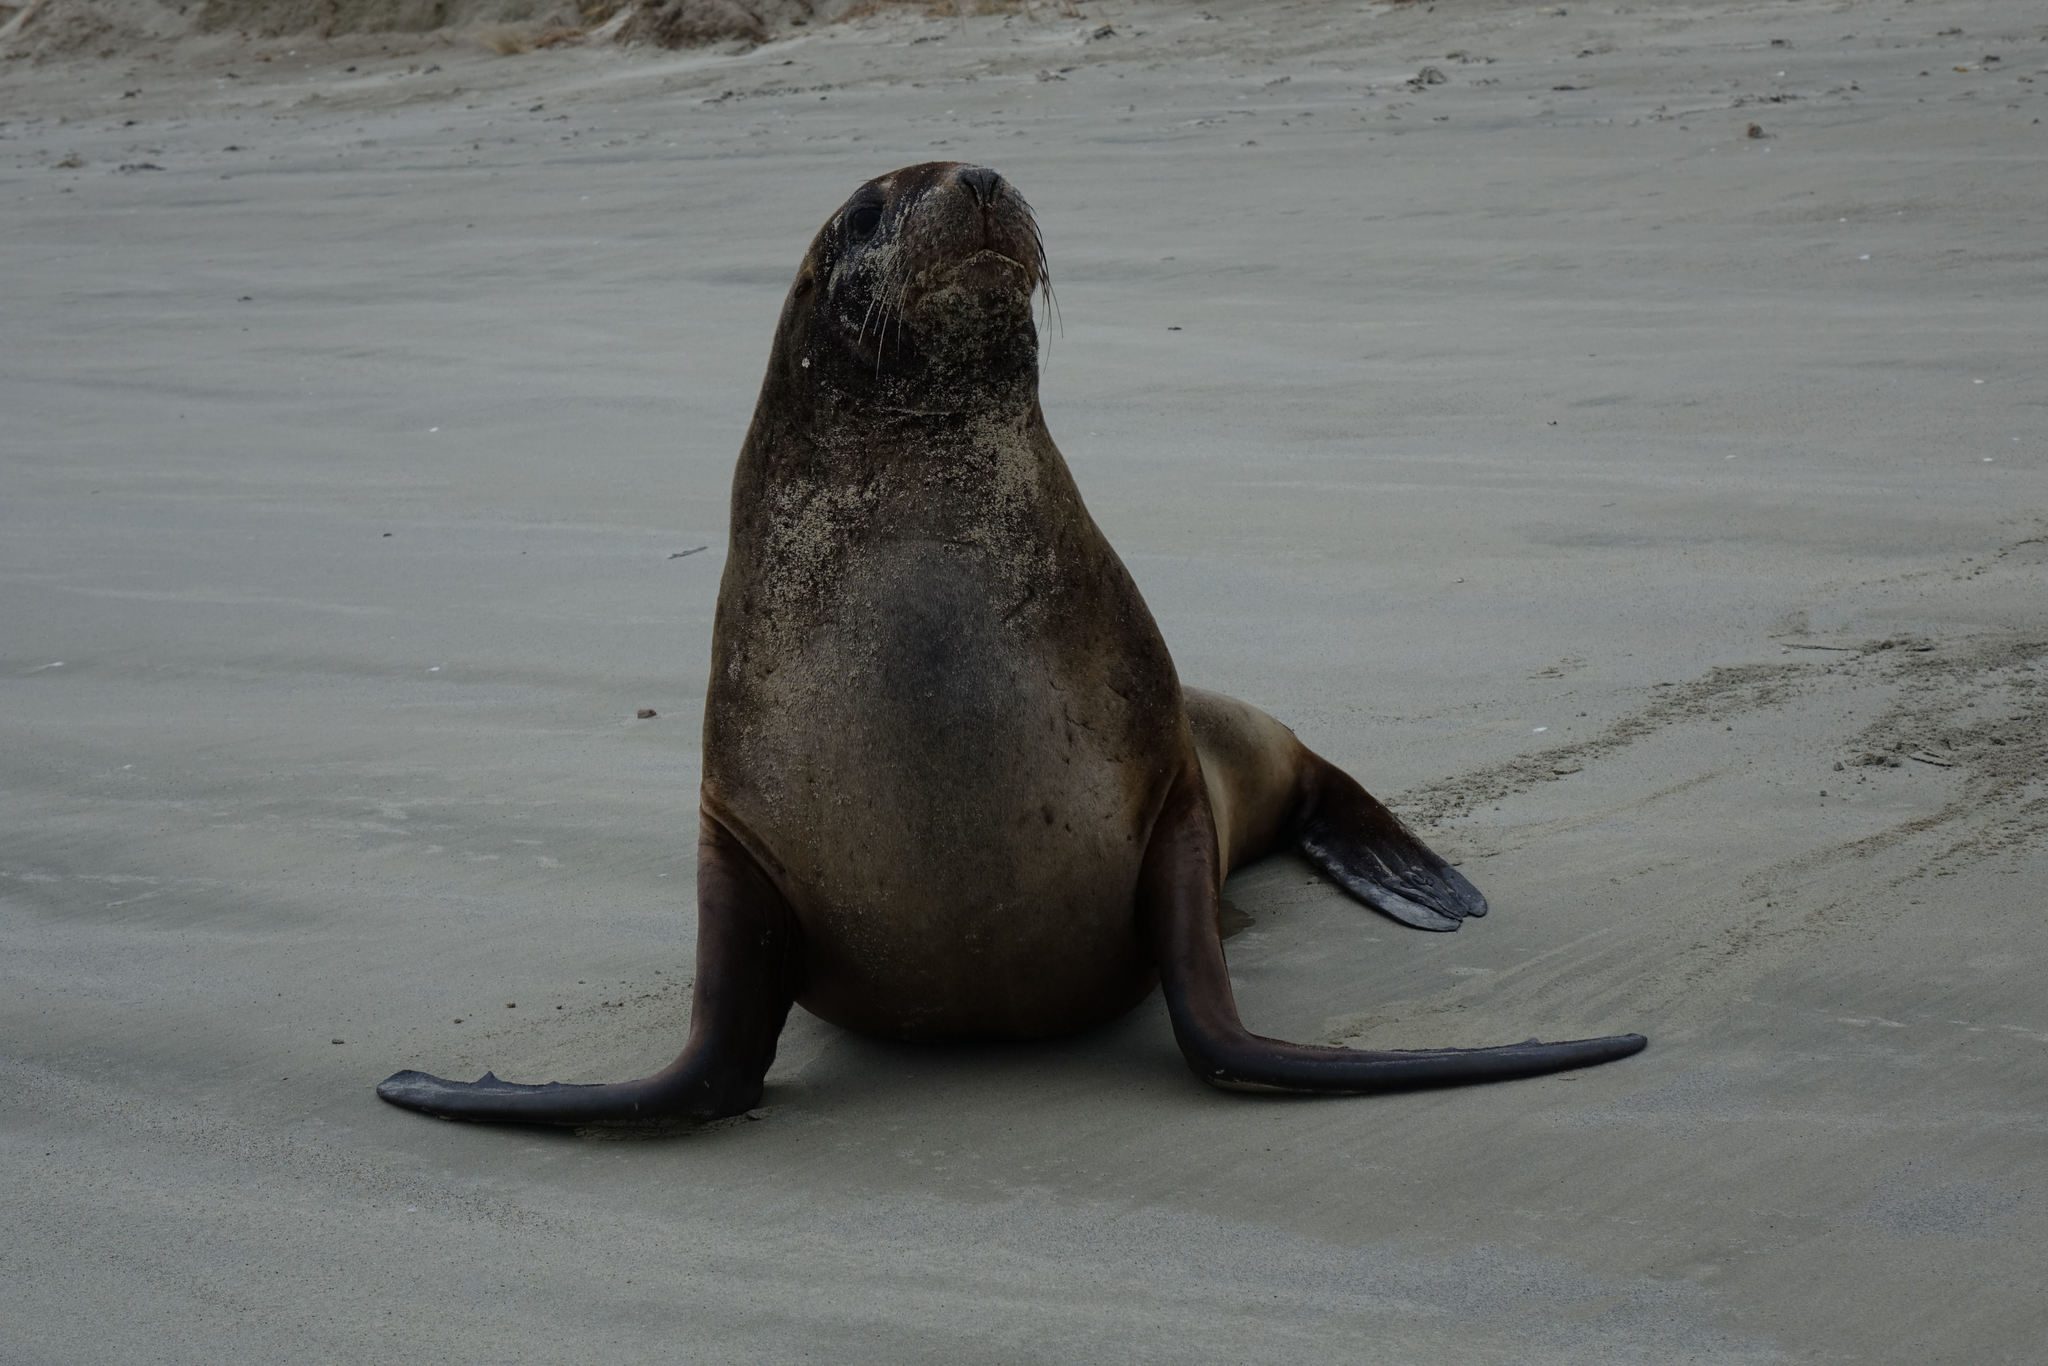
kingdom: Animalia
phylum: Chordata
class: Mammalia
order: Carnivora
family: Otariidae
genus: Phocarctos
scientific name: Phocarctos hookeri
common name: New zealand sea lion
